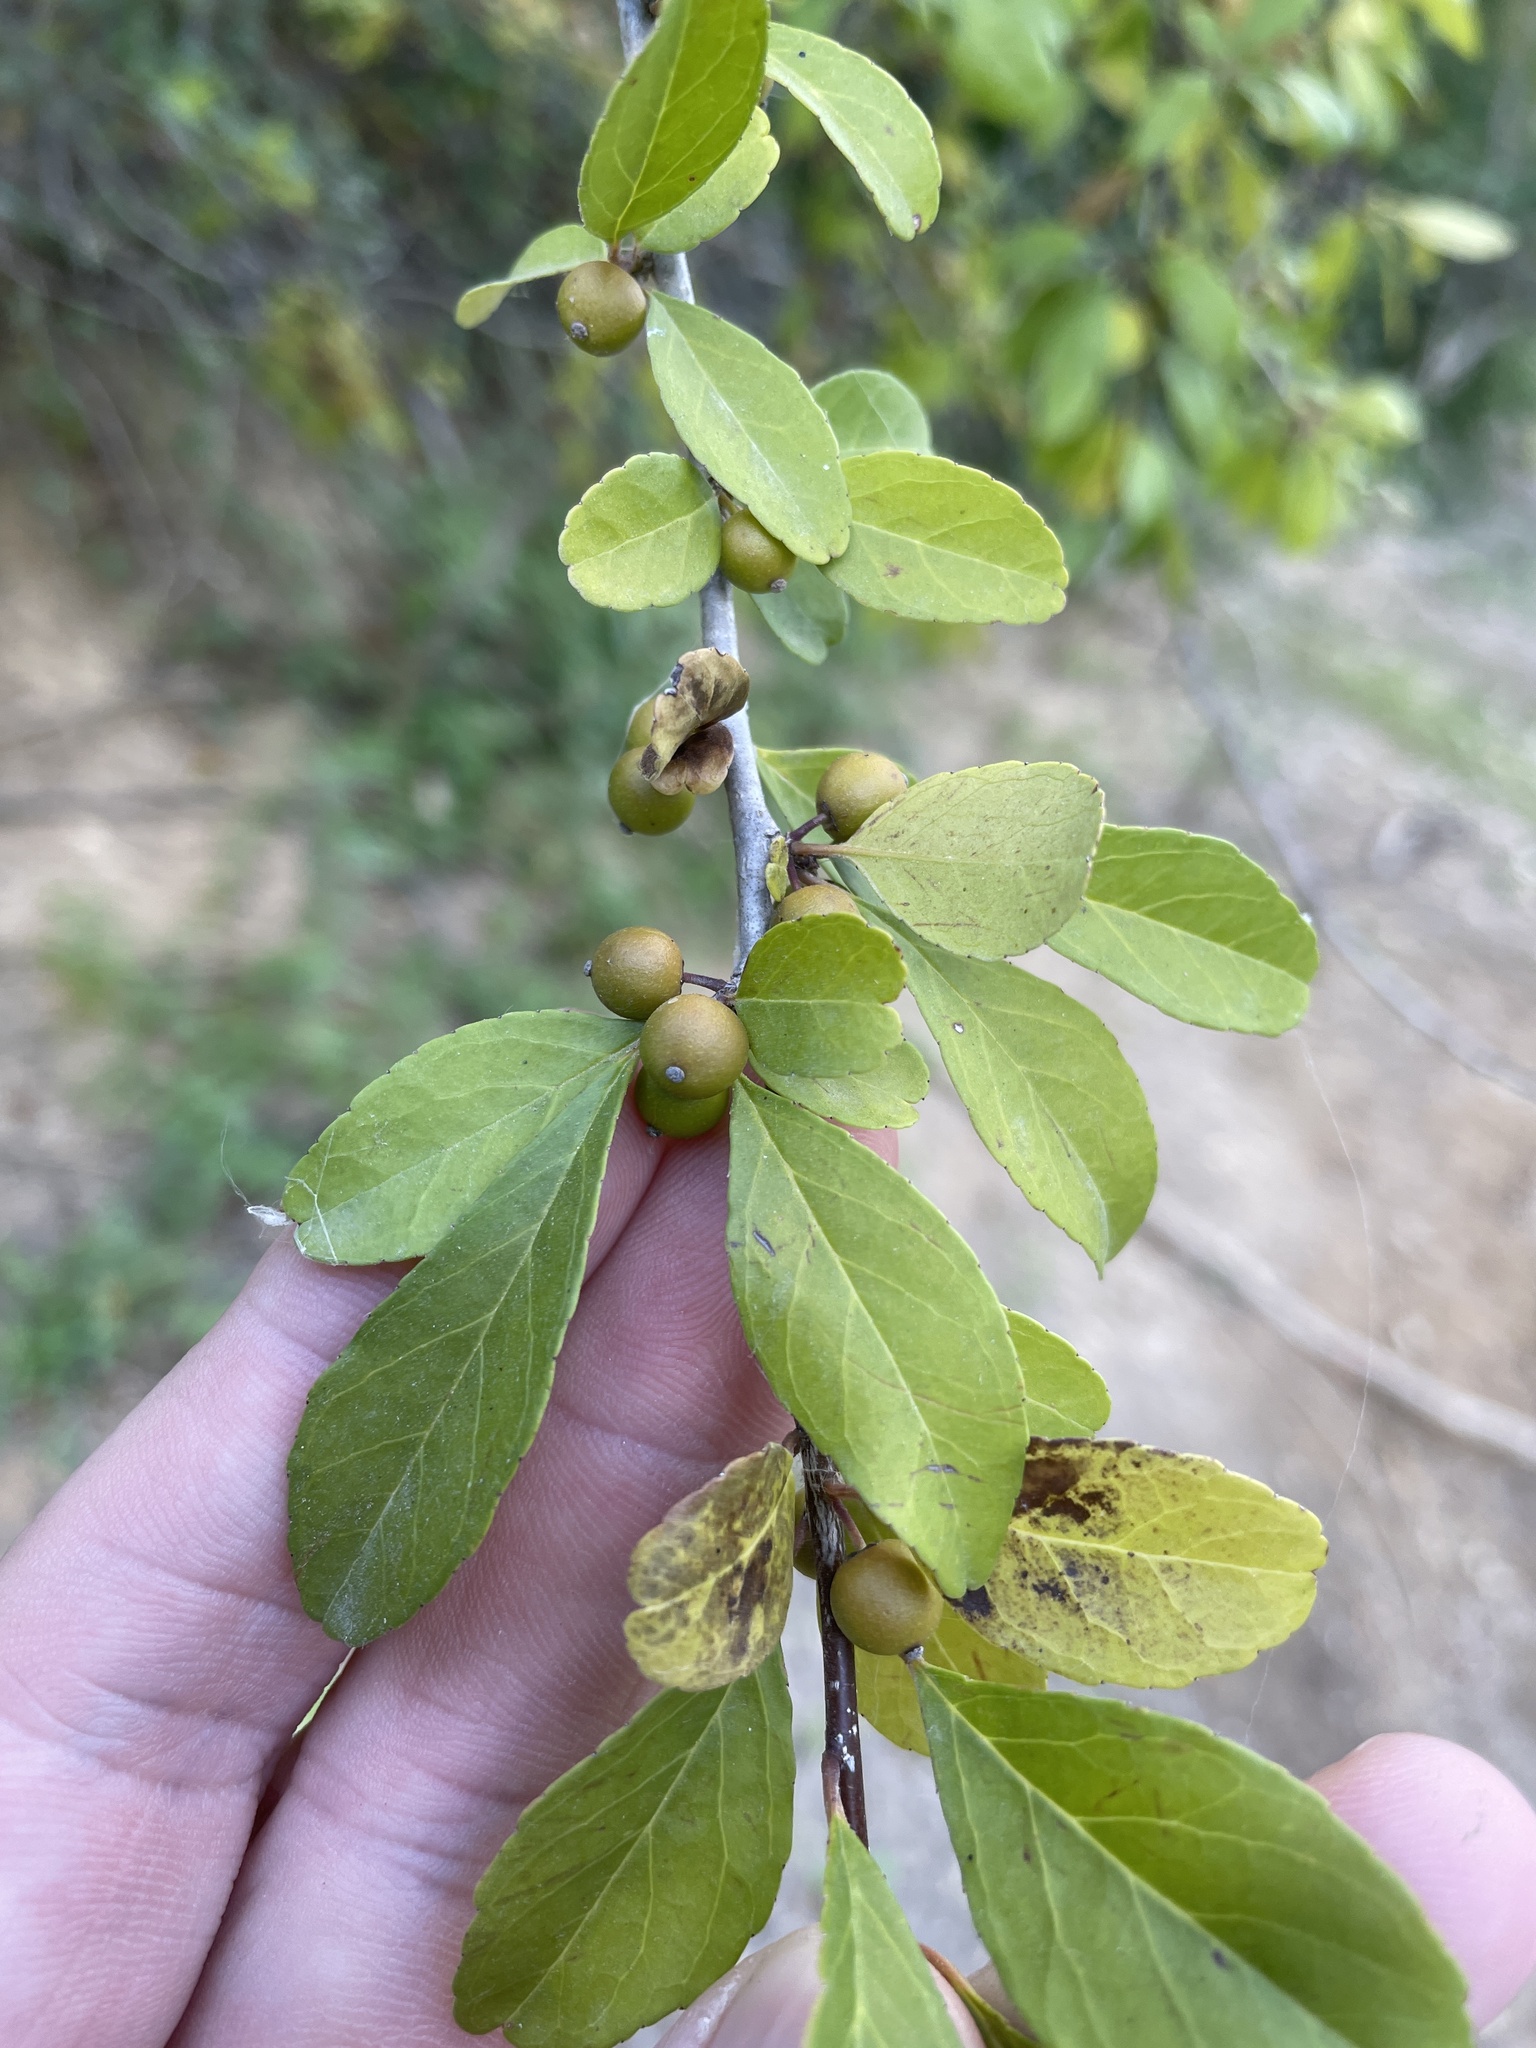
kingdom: Plantae
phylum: Tracheophyta
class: Magnoliopsida
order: Aquifoliales
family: Aquifoliaceae
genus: Ilex
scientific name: Ilex decidua
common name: Possum-haw
